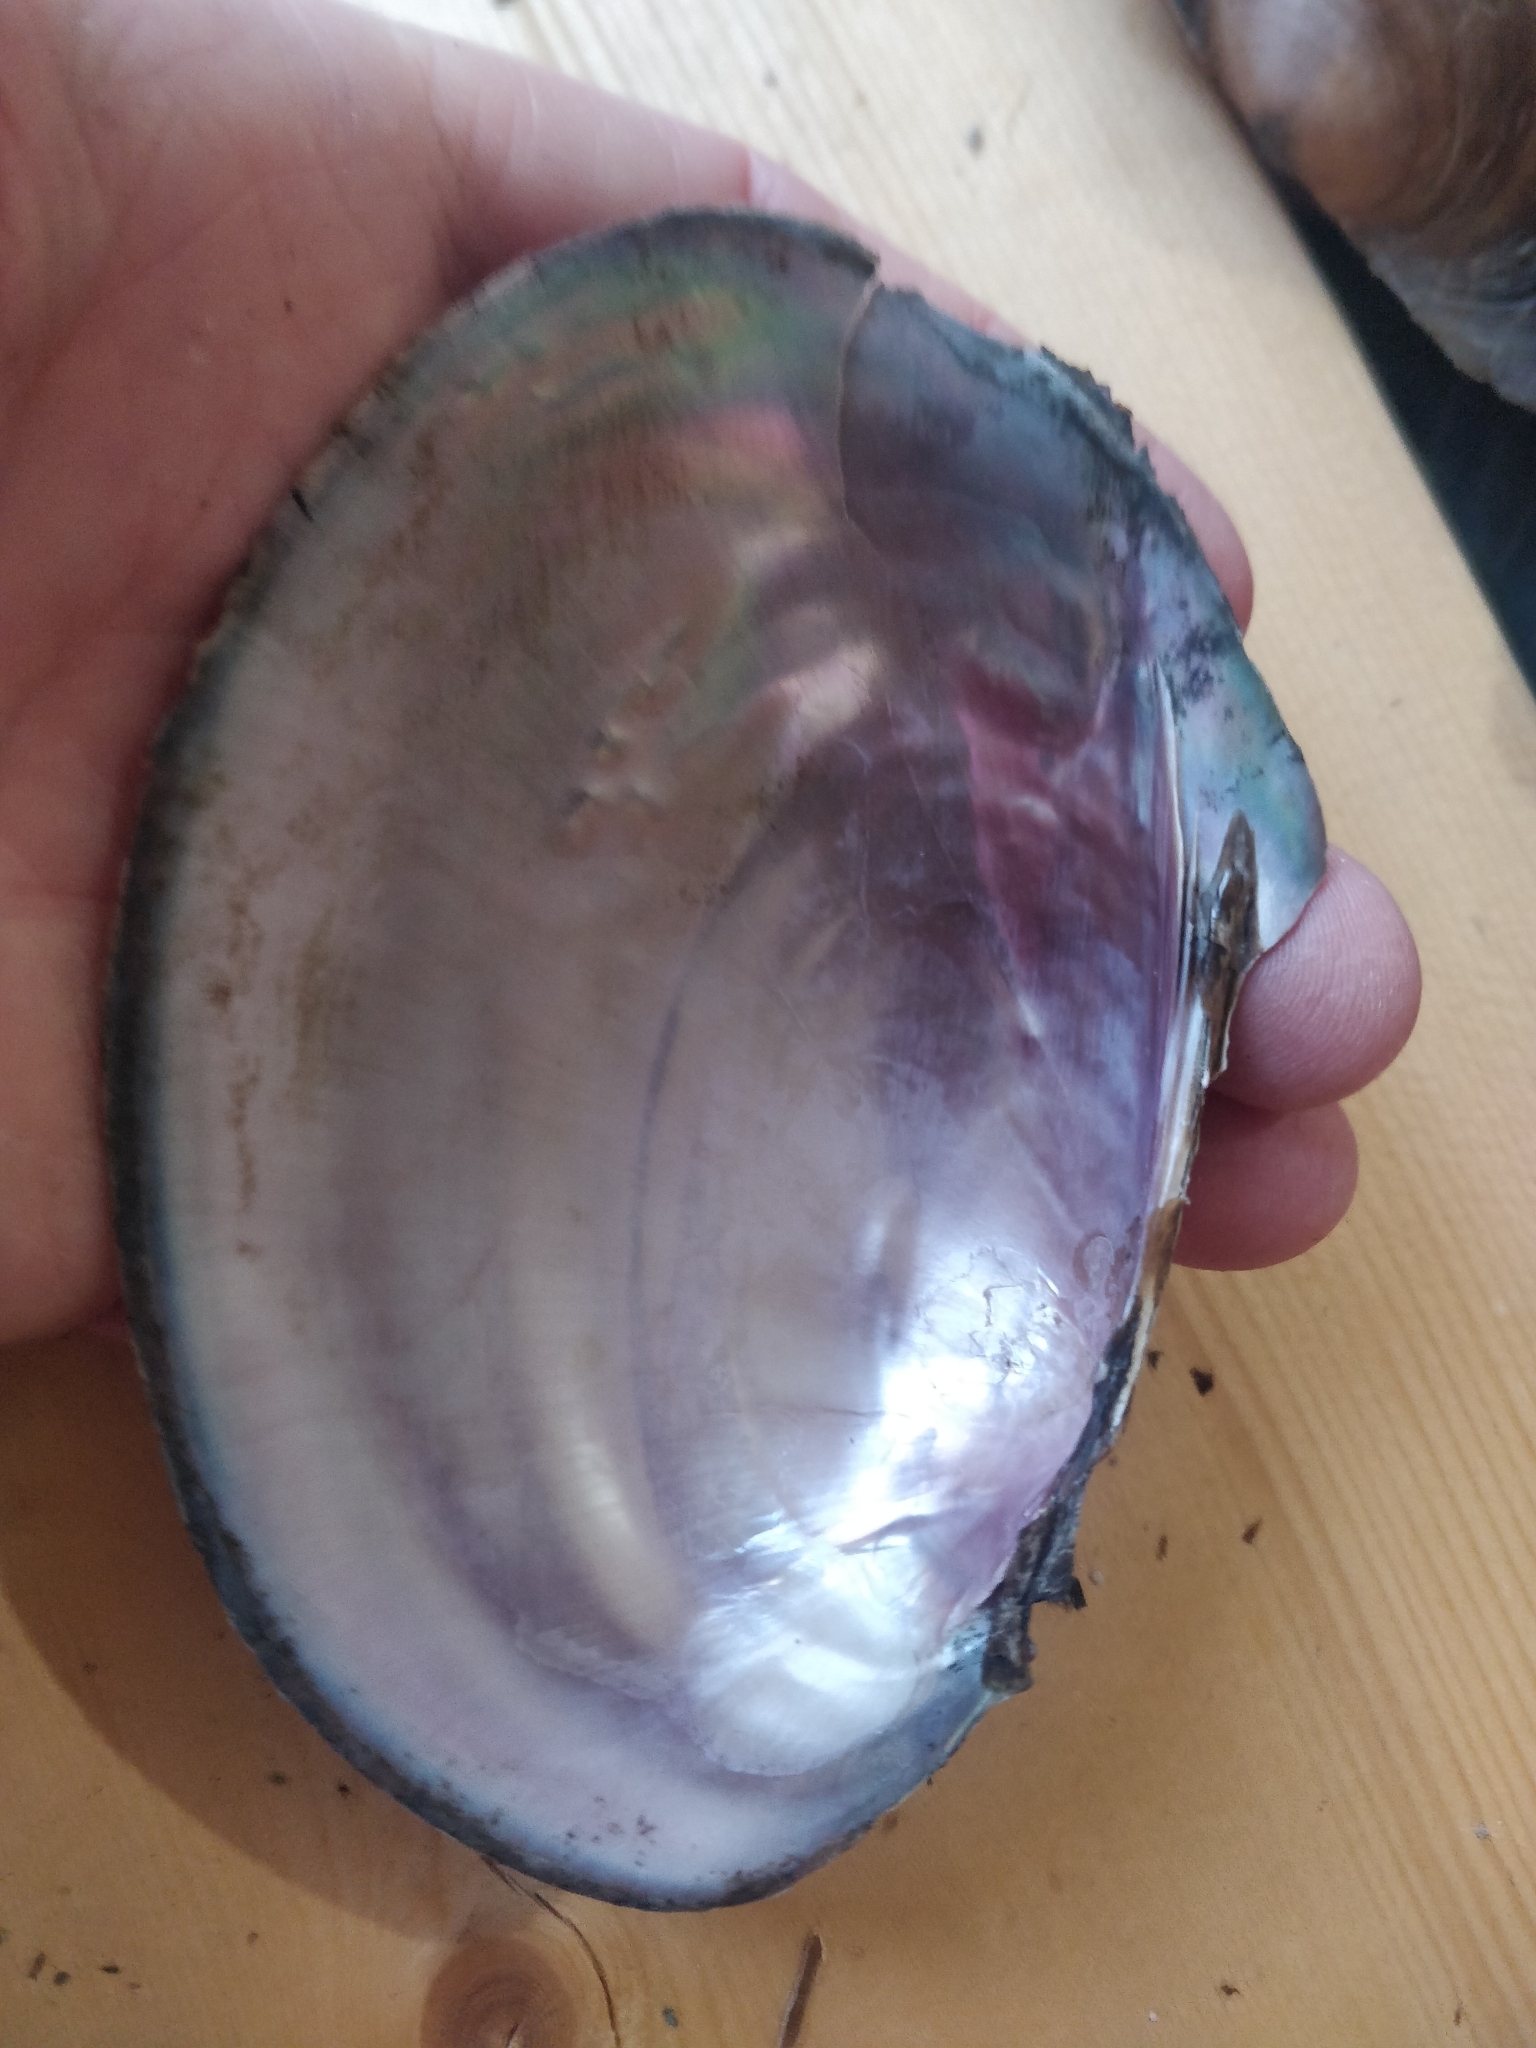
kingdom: Animalia
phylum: Mollusca
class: Bivalvia
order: Unionida
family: Unionidae
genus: Potamilus
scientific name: Potamilus ohiensis
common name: Pink papershell
